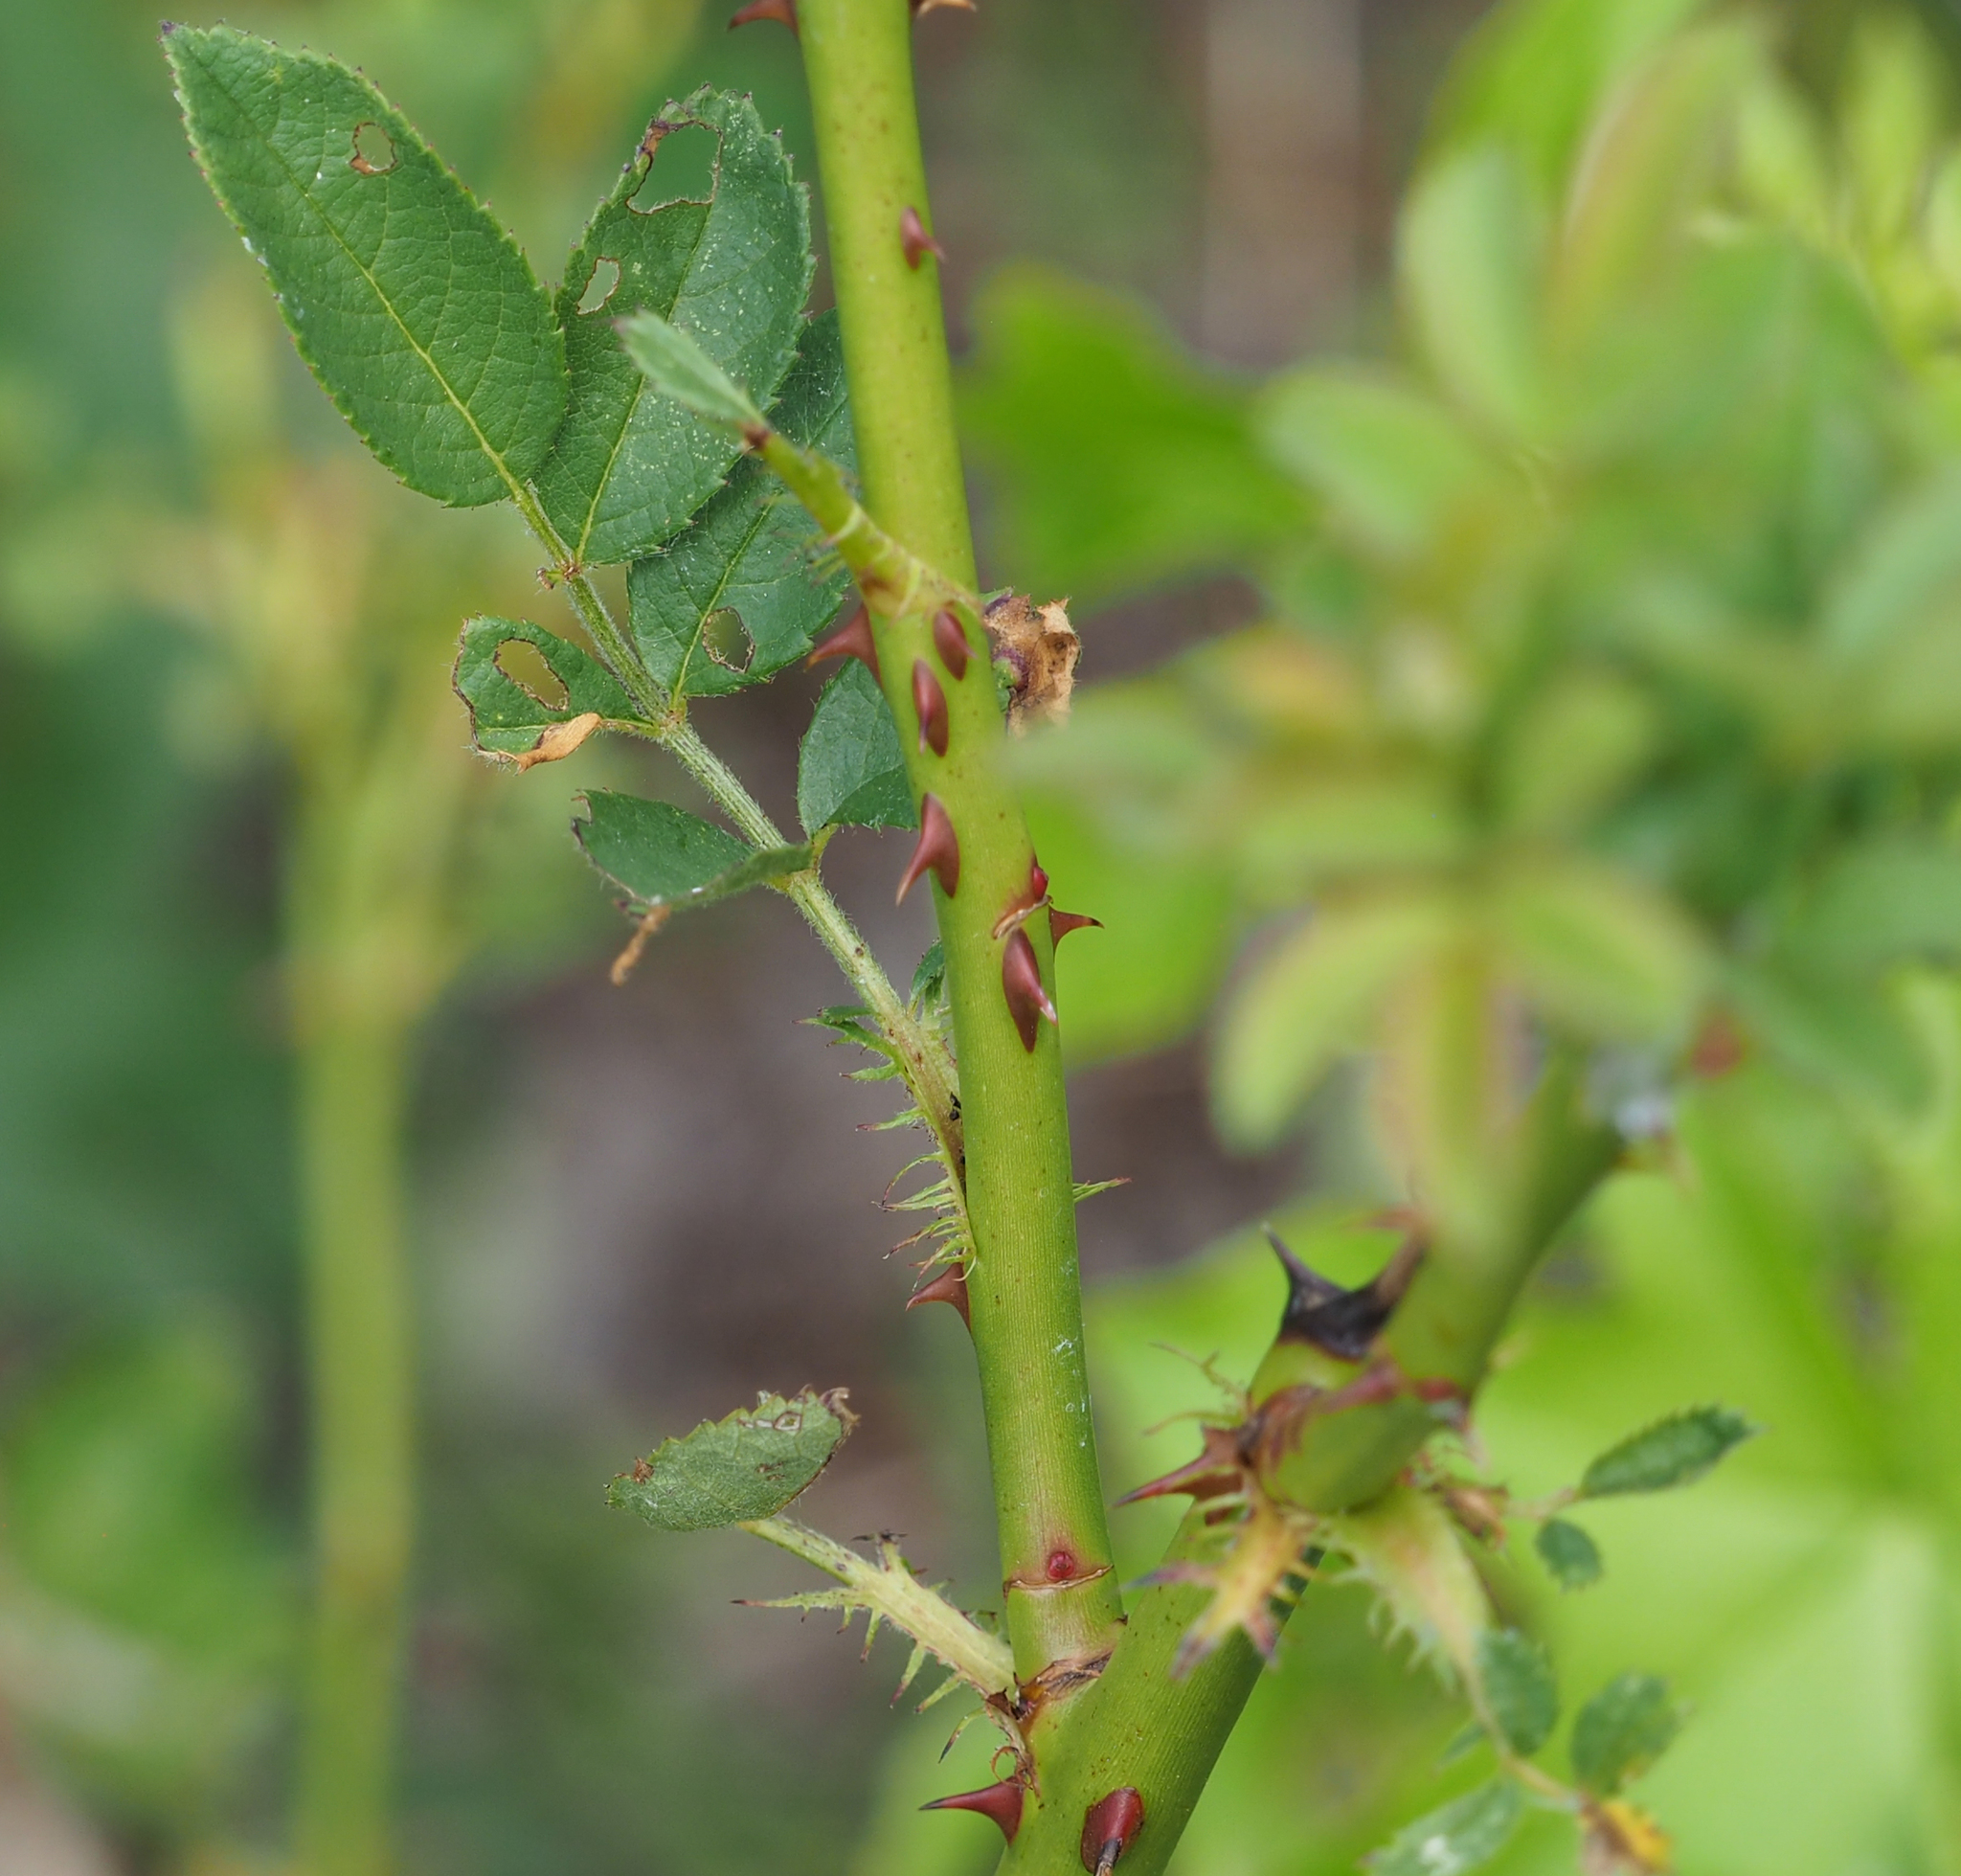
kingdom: Plantae
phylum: Tracheophyta
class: Magnoliopsida
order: Rosales
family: Rosaceae
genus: Rosa
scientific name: Rosa multiflora
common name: Multiflora rose
